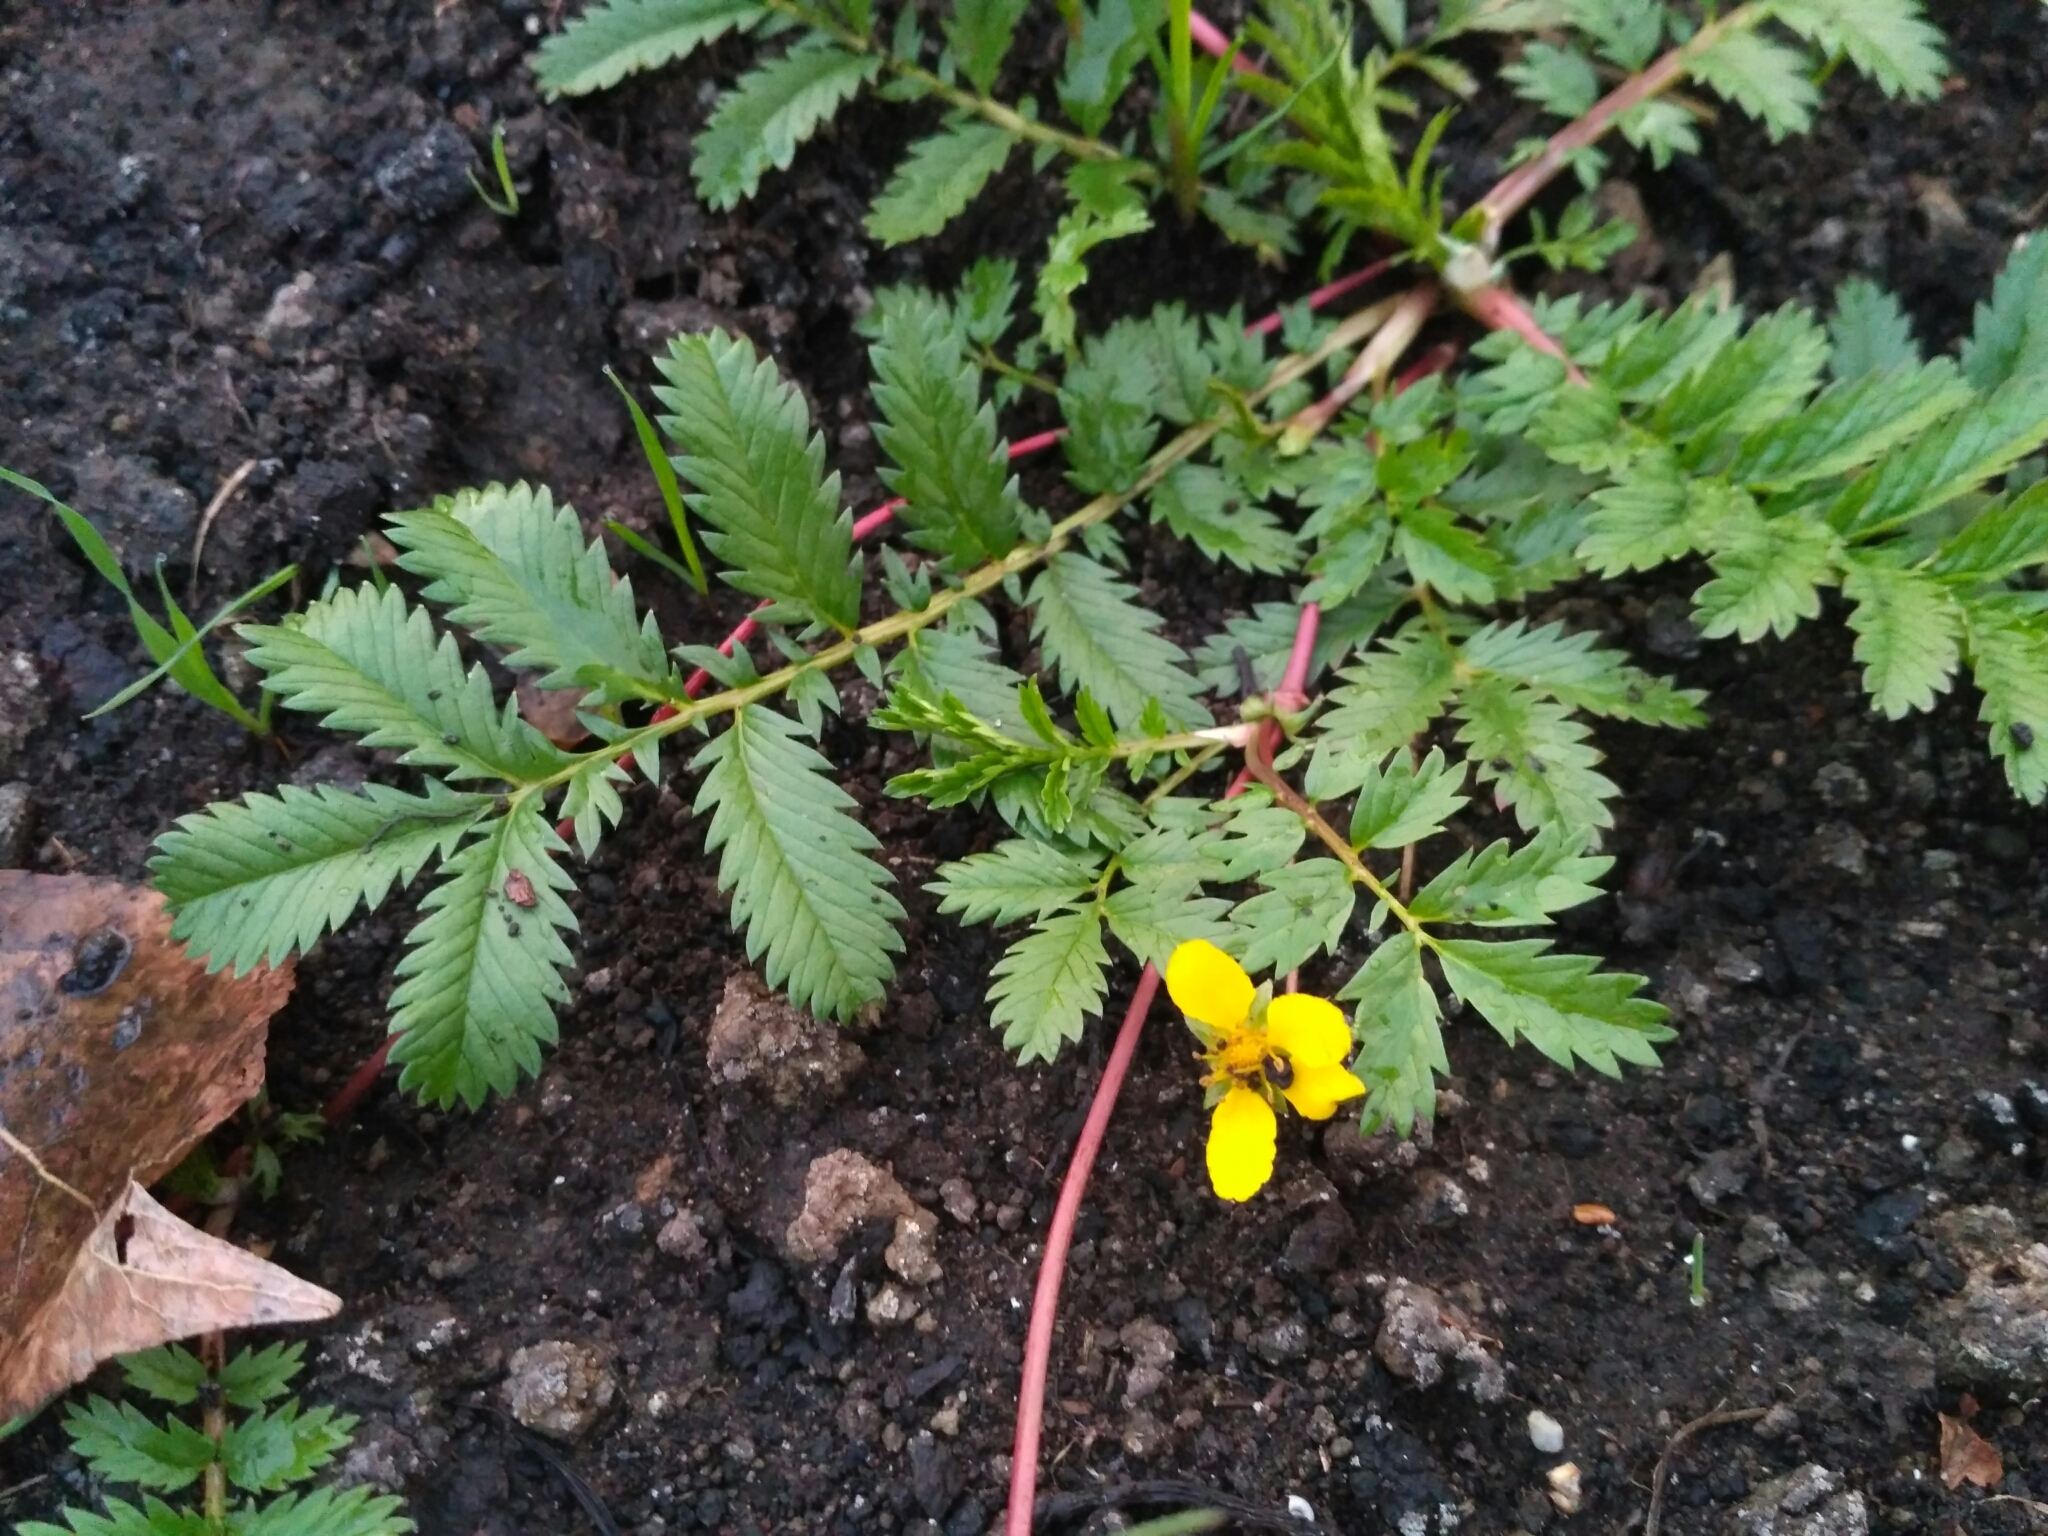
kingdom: Plantae
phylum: Tracheophyta
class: Magnoliopsida
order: Rosales
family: Rosaceae
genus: Argentina
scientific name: Argentina anserina
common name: Common silverweed
